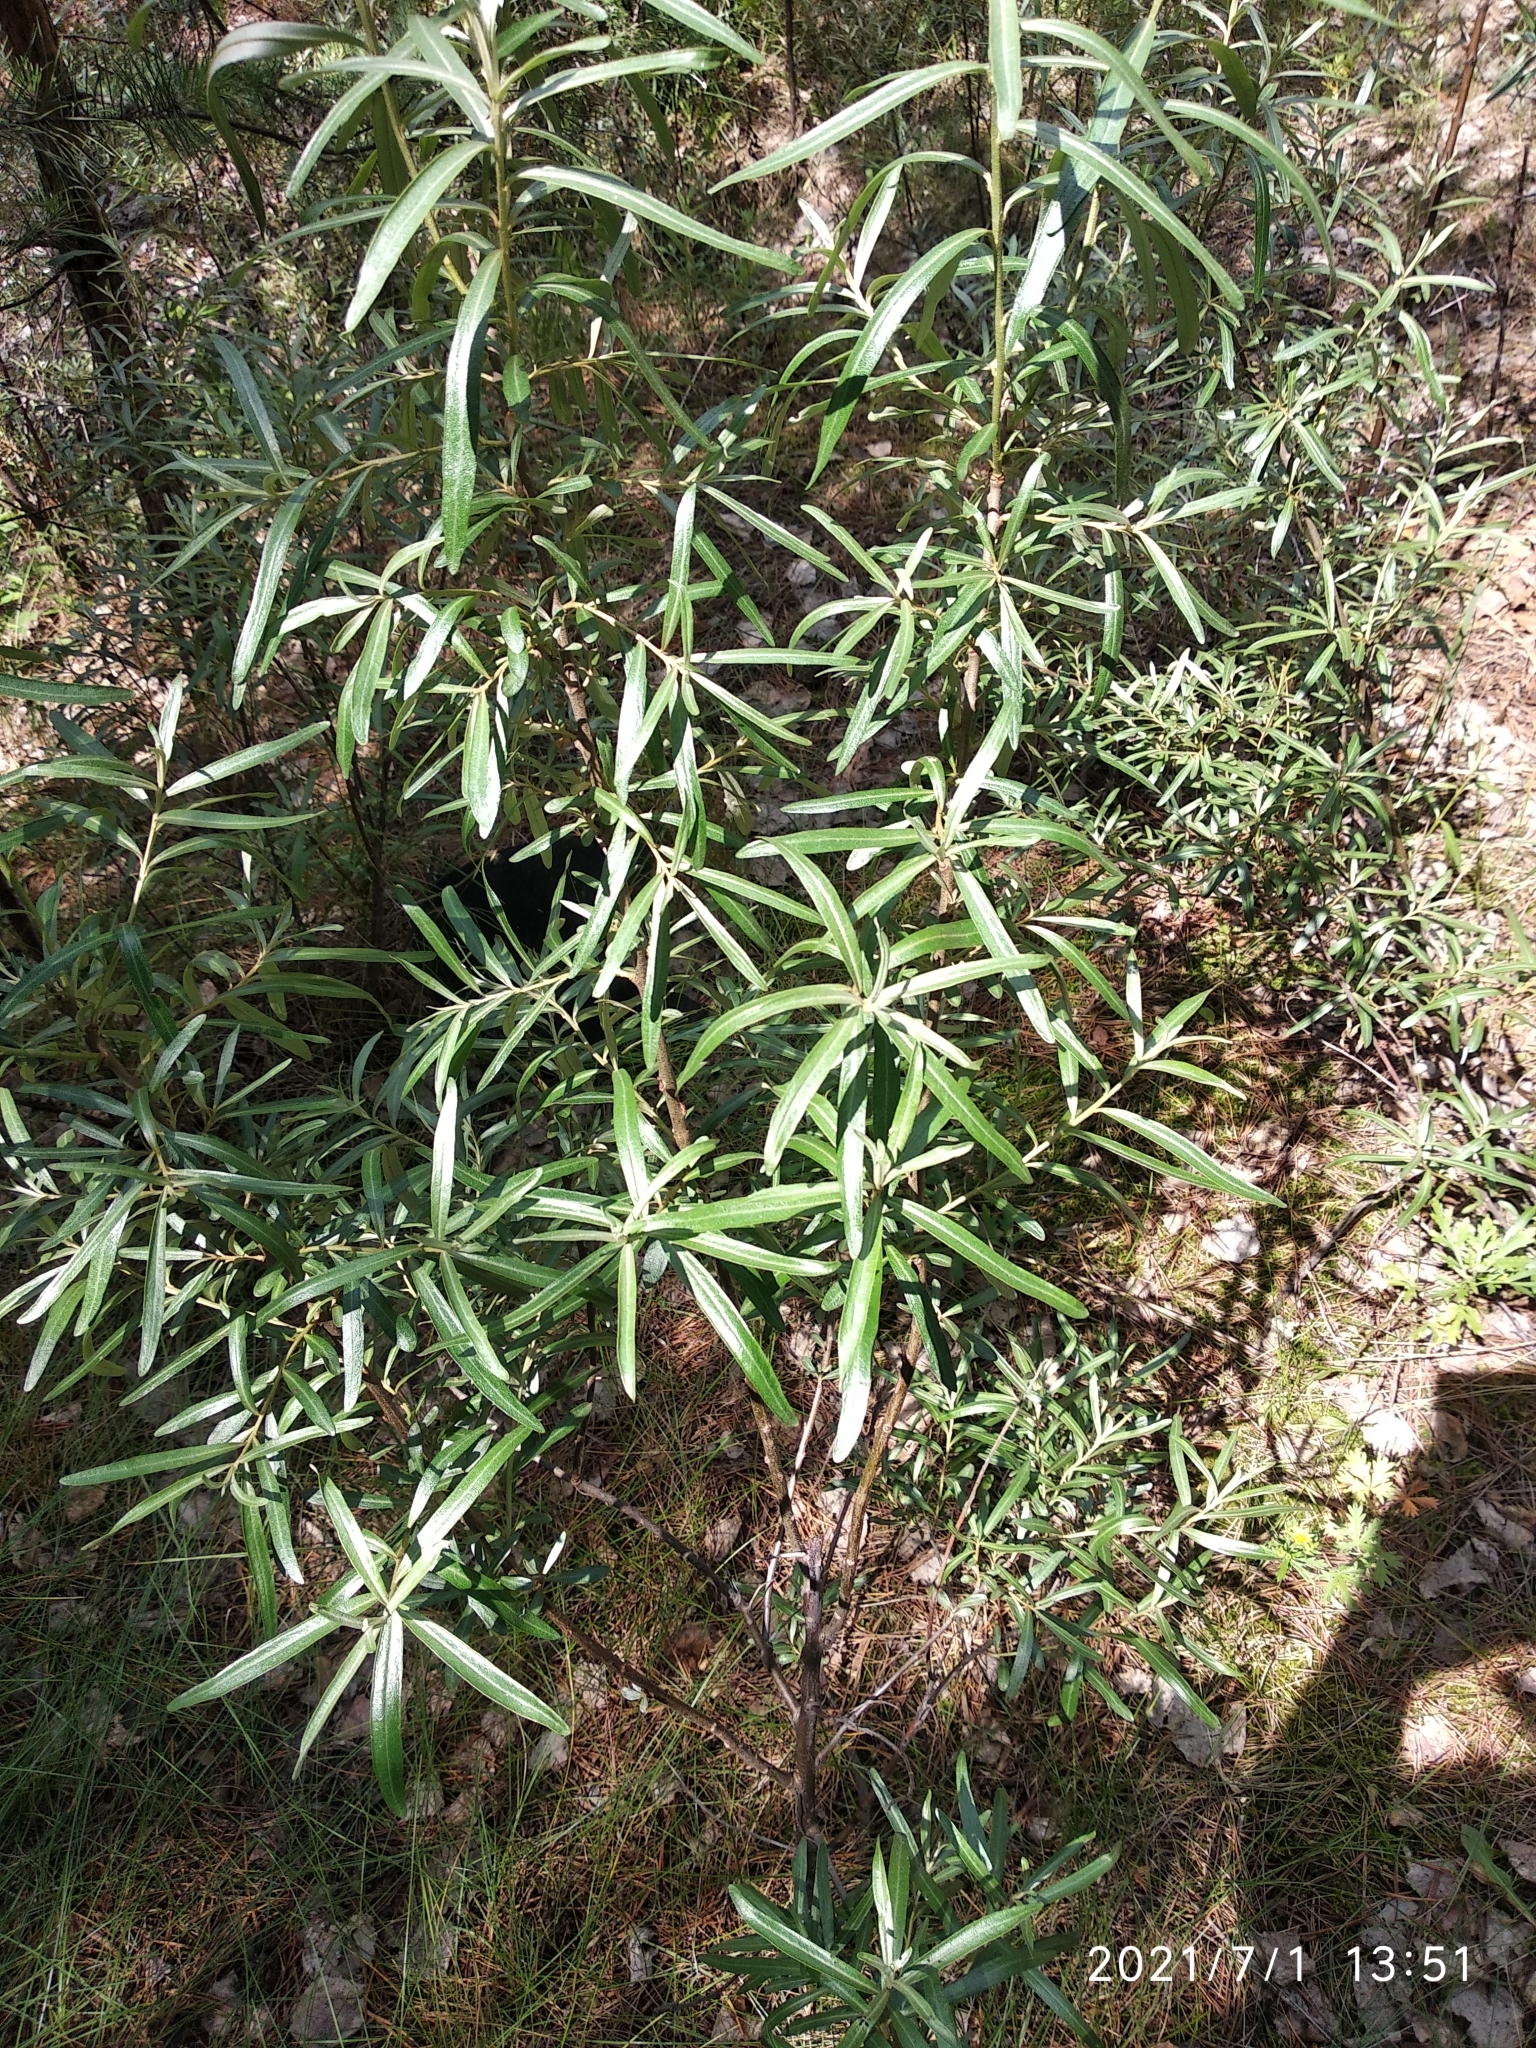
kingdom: Plantae
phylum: Tracheophyta
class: Magnoliopsida
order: Rosales
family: Elaeagnaceae
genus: Hippophae
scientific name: Hippophae rhamnoides
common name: Sea-buckthorn
